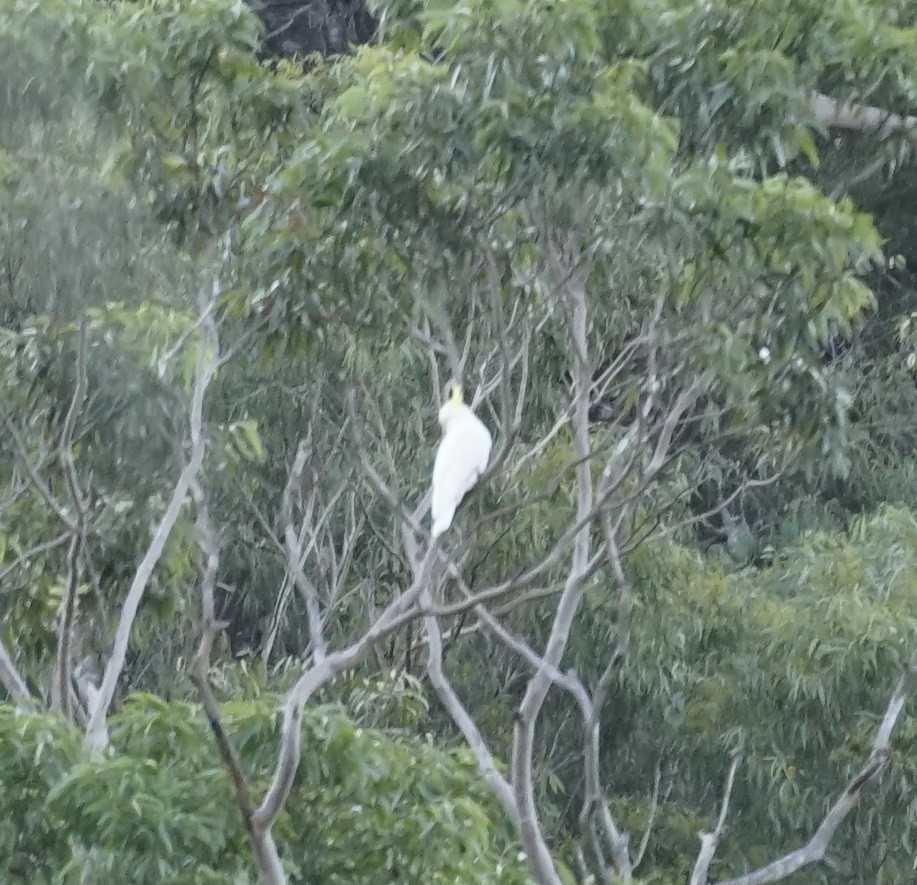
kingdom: Animalia
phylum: Chordata
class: Aves
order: Psittaciformes
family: Psittacidae
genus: Cacatua
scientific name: Cacatua galerita
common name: Sulphur-crested cockatoo
